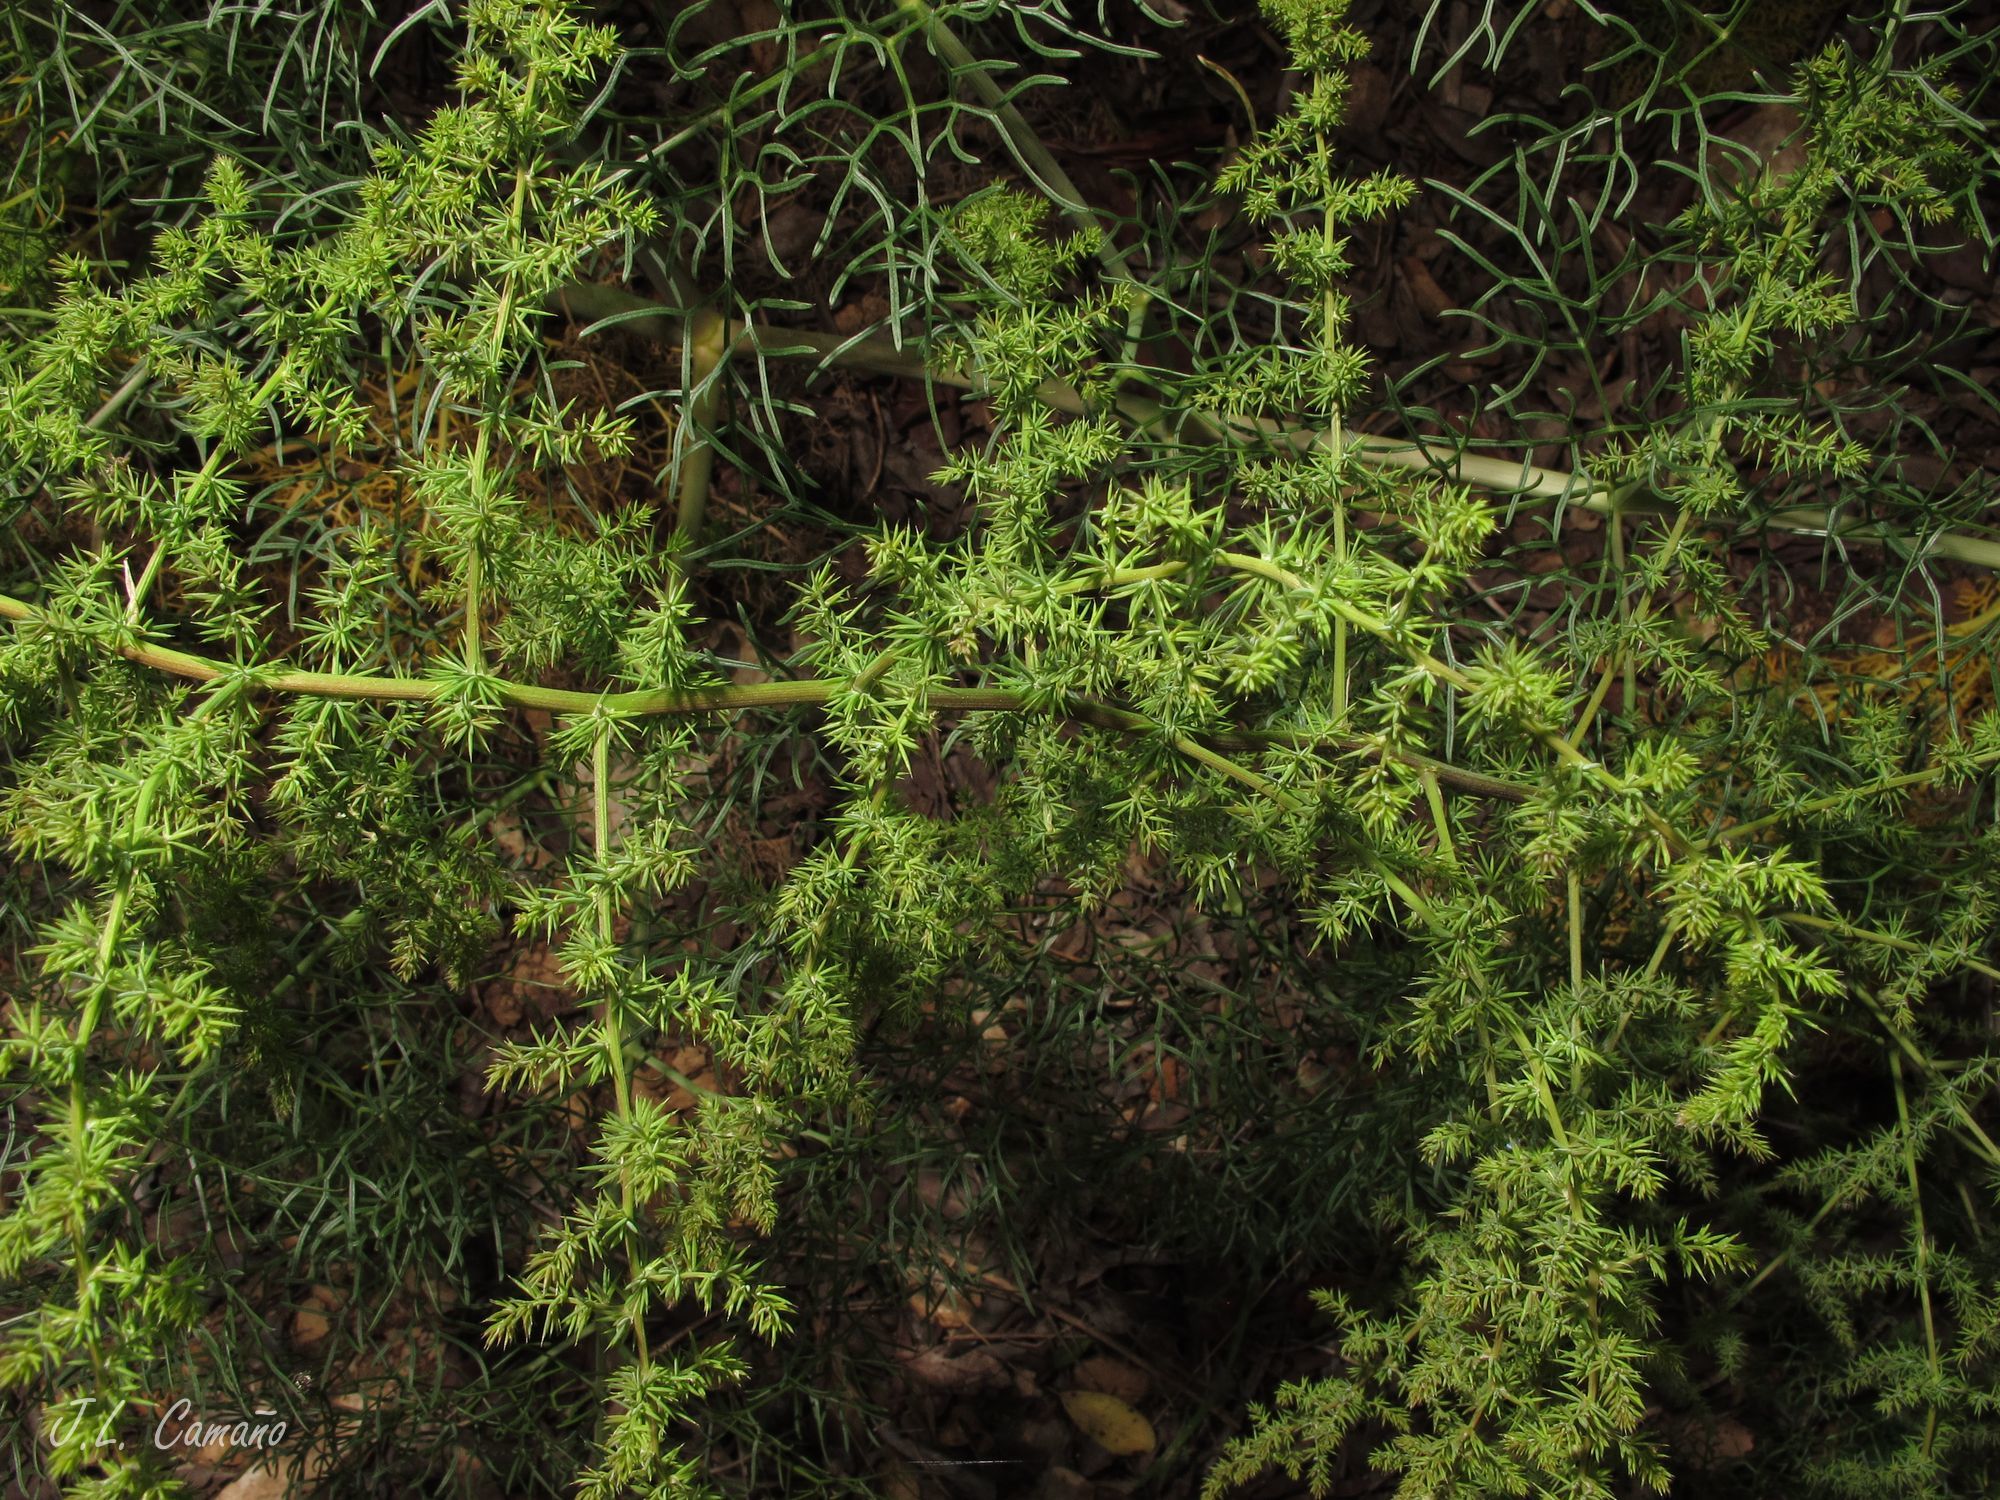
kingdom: Plantae
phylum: Tracheophyta
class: Liliopsida
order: Asparagales
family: Asparagaceae
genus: Asparagus
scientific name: Asparagus acutifolius
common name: Wild asparagus
